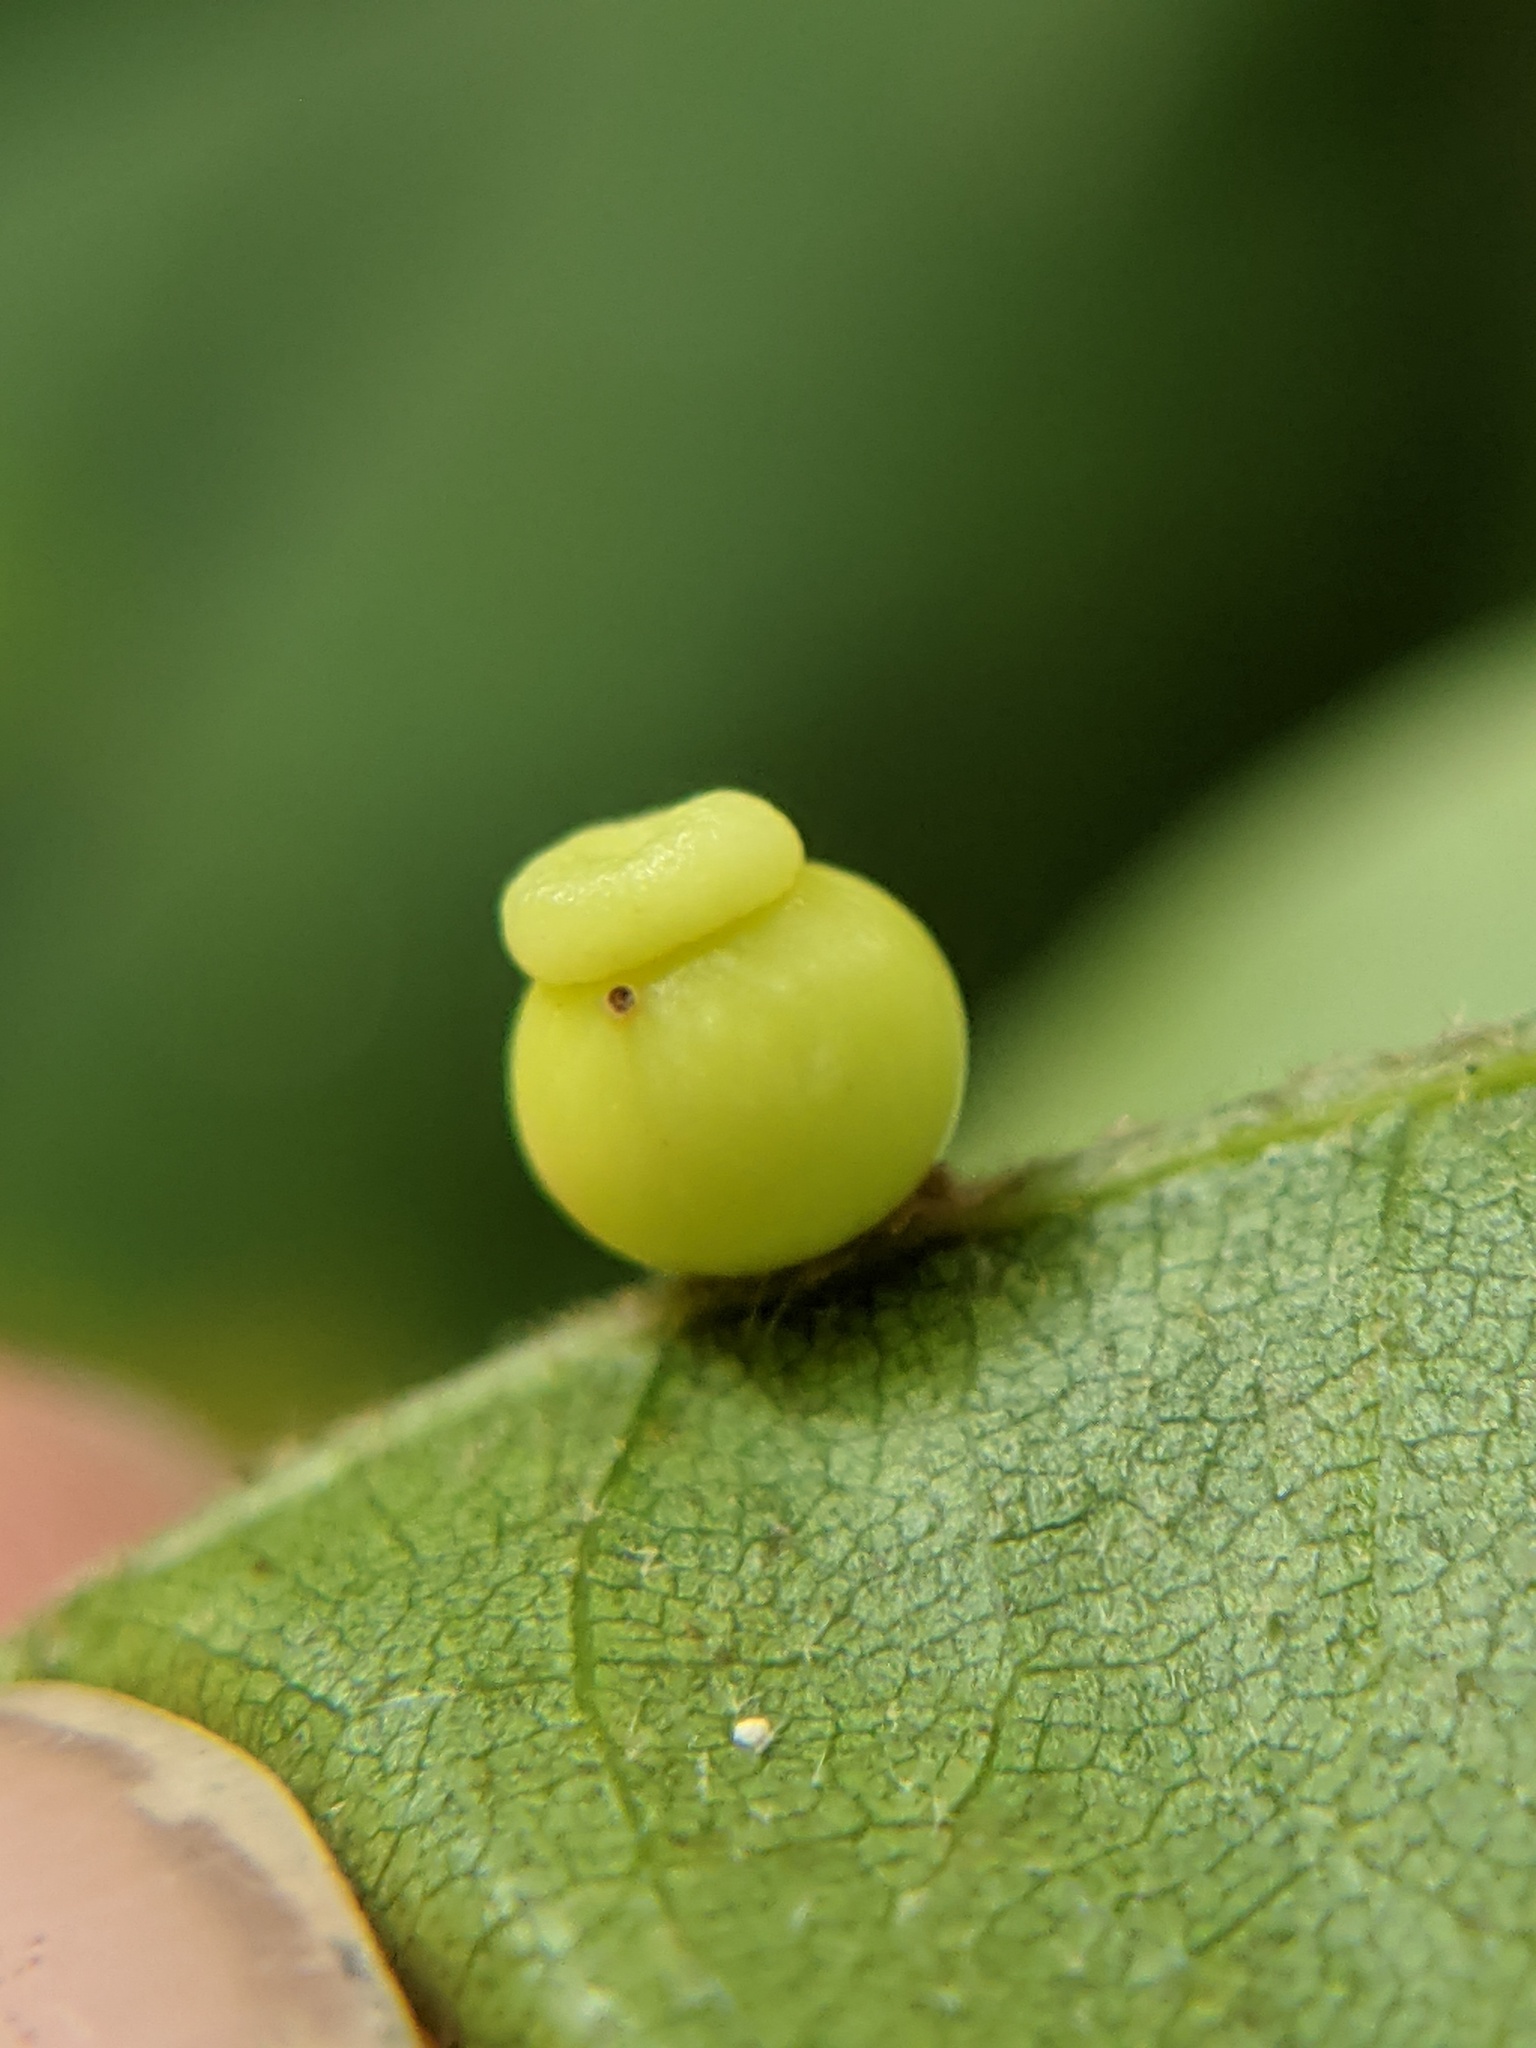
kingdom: Animalia
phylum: Arthropoda
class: Insecta
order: Hymenoptera
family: Cynipidae
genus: Kokkocynips
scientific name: Kokkocynips rileyi
